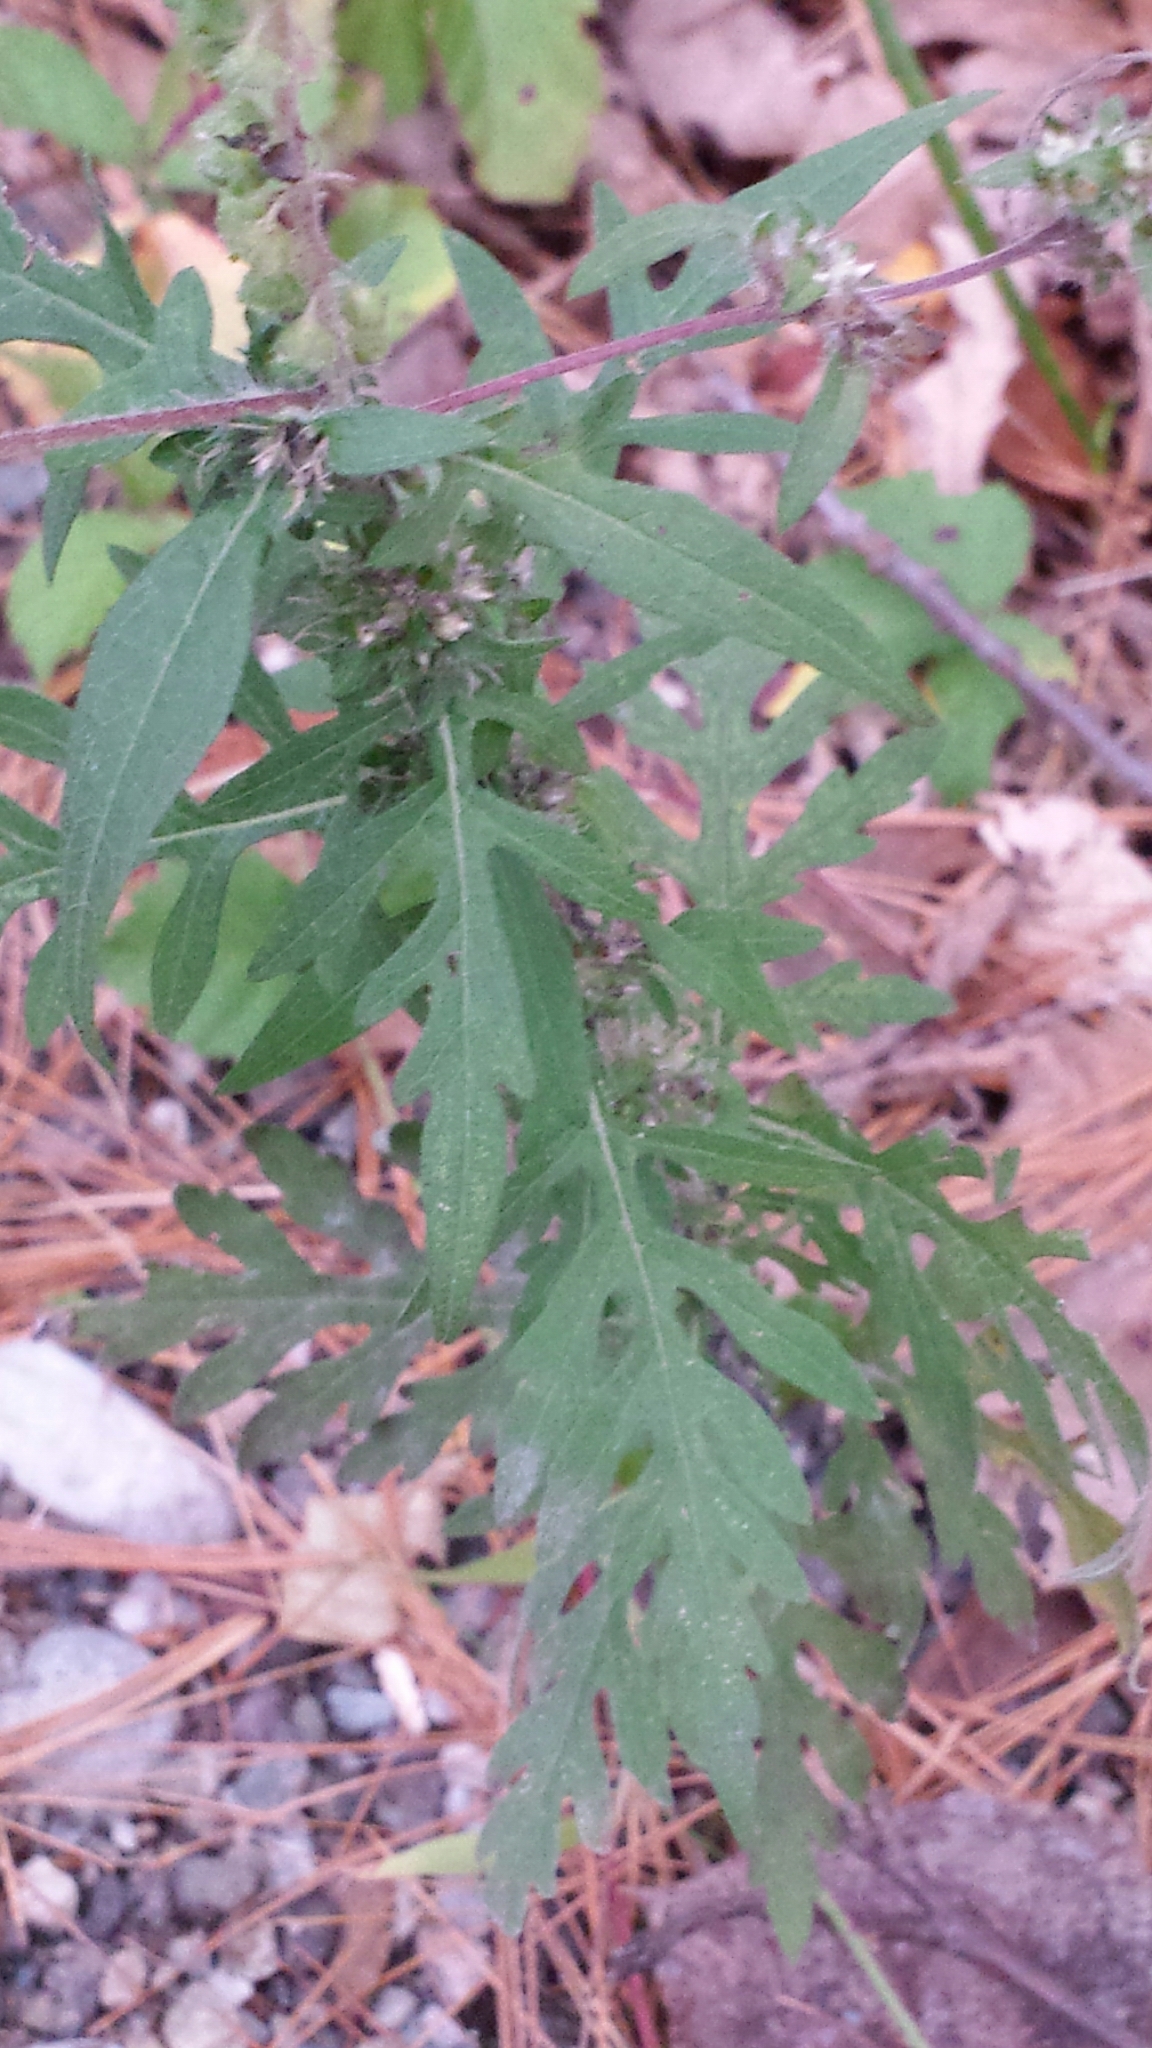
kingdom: Plantae
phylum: Tracheophyta
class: Magnoliopsida
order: Asterales
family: Asteraceae
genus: Ambrosia
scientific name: Ambrosia artemisiifolia
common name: Annual ragweed
